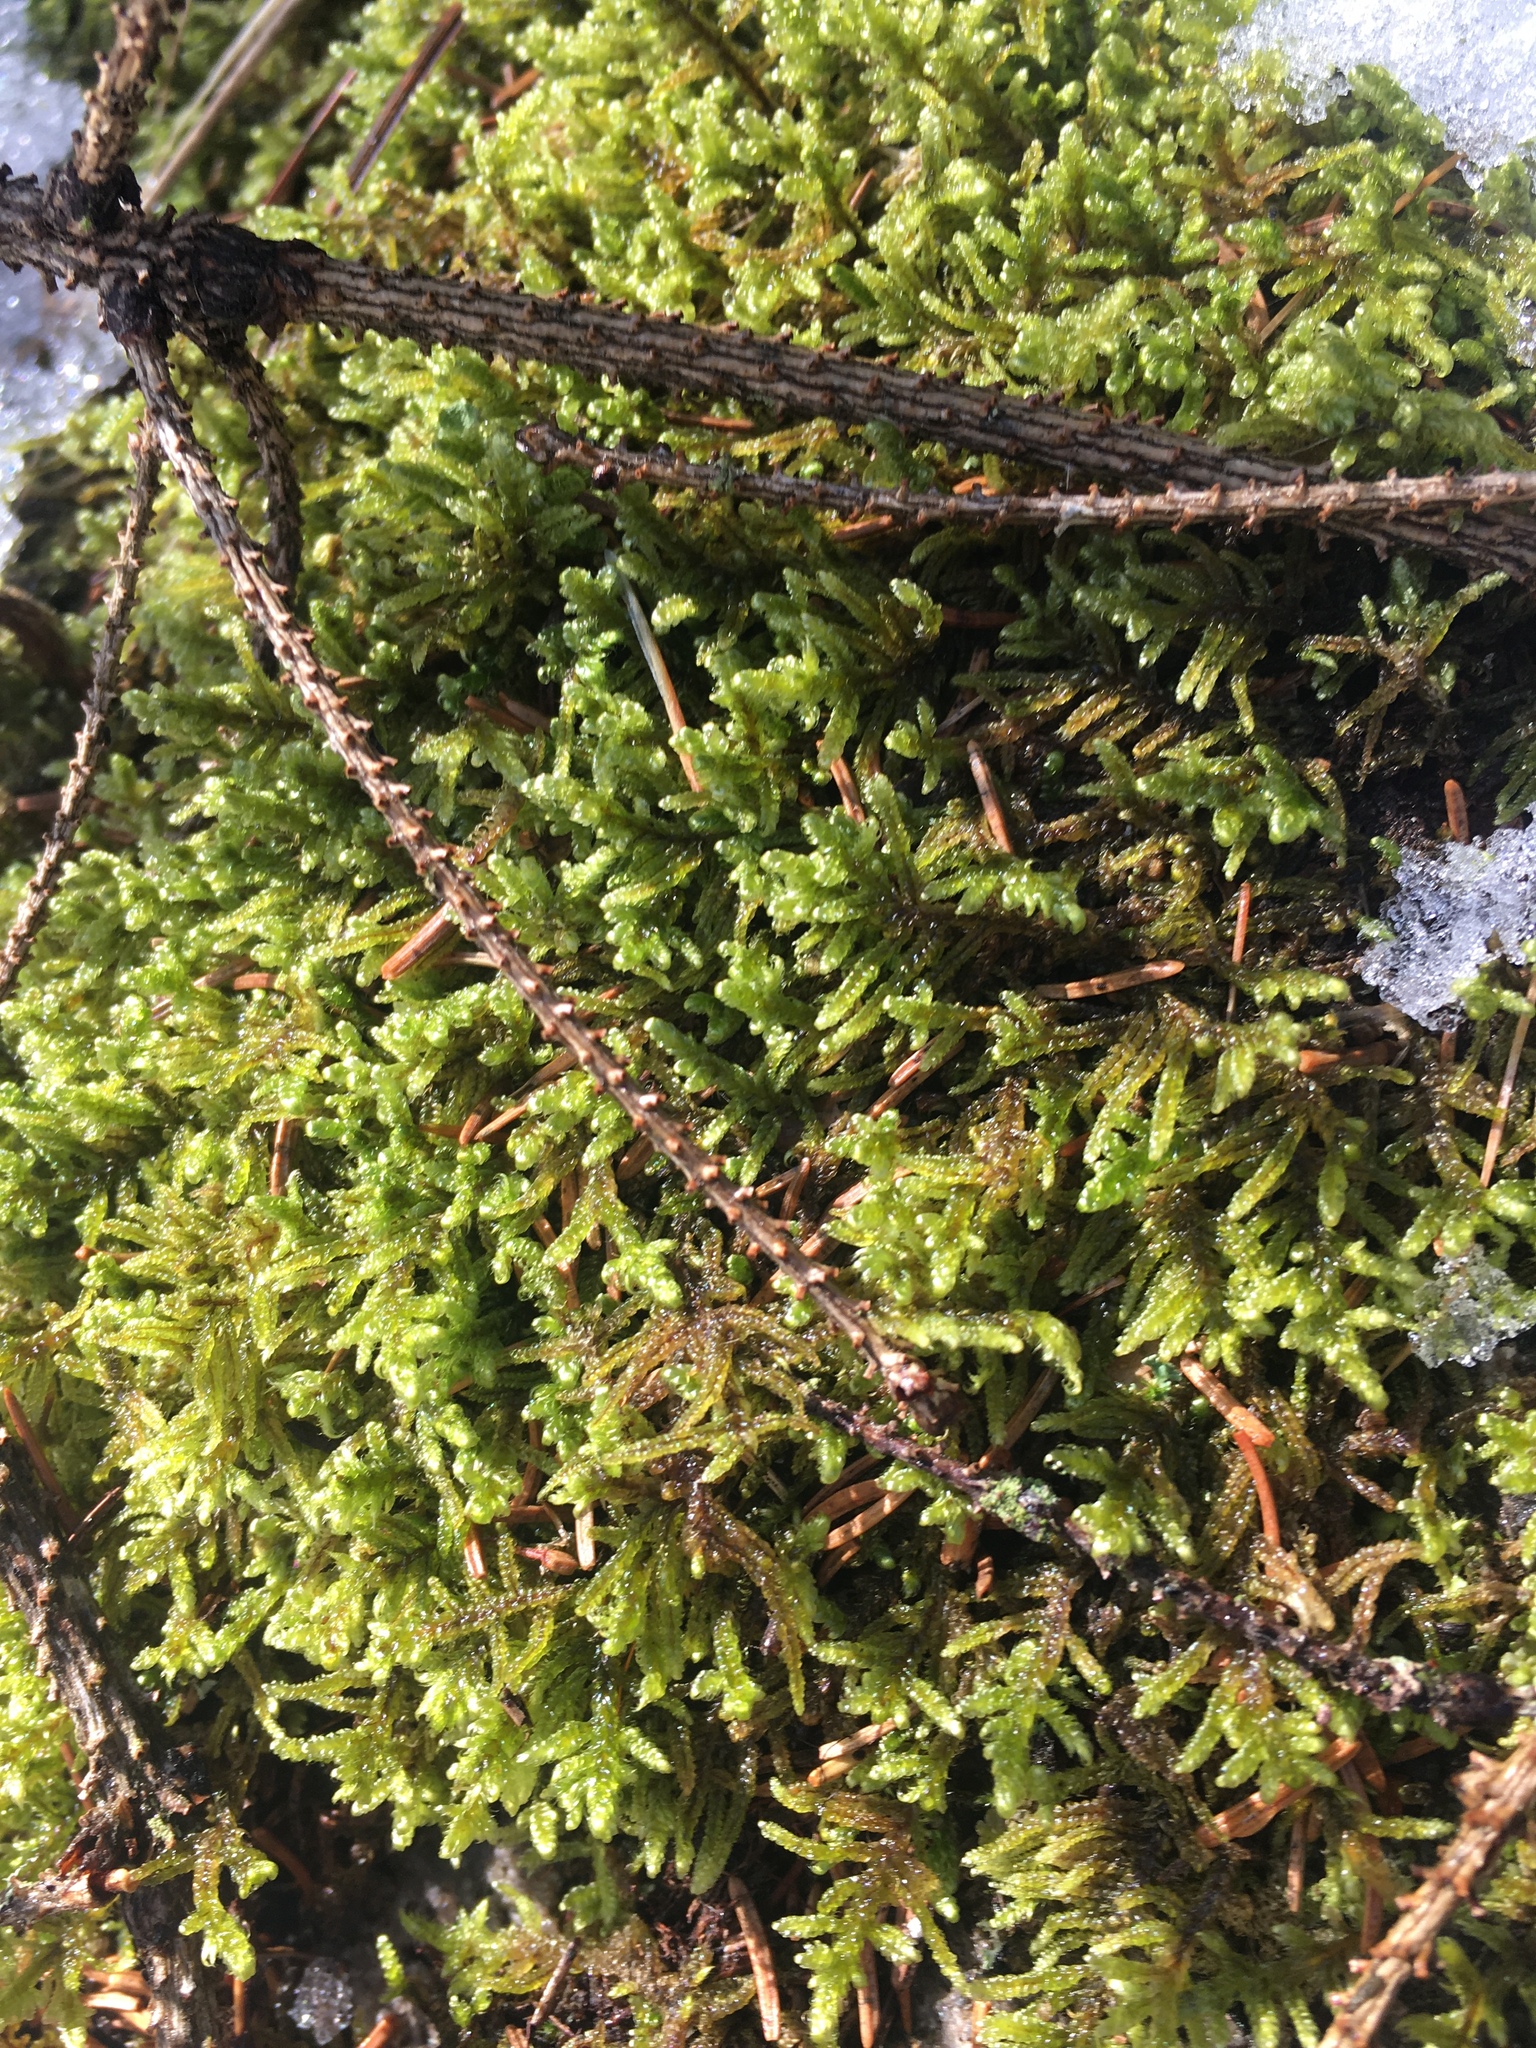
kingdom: Plantae
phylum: Bryophyta
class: Bryopsida
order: Hypnales
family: Callicladiaceae
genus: Callicladium
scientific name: Callicladium imponens
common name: Brocade moss
